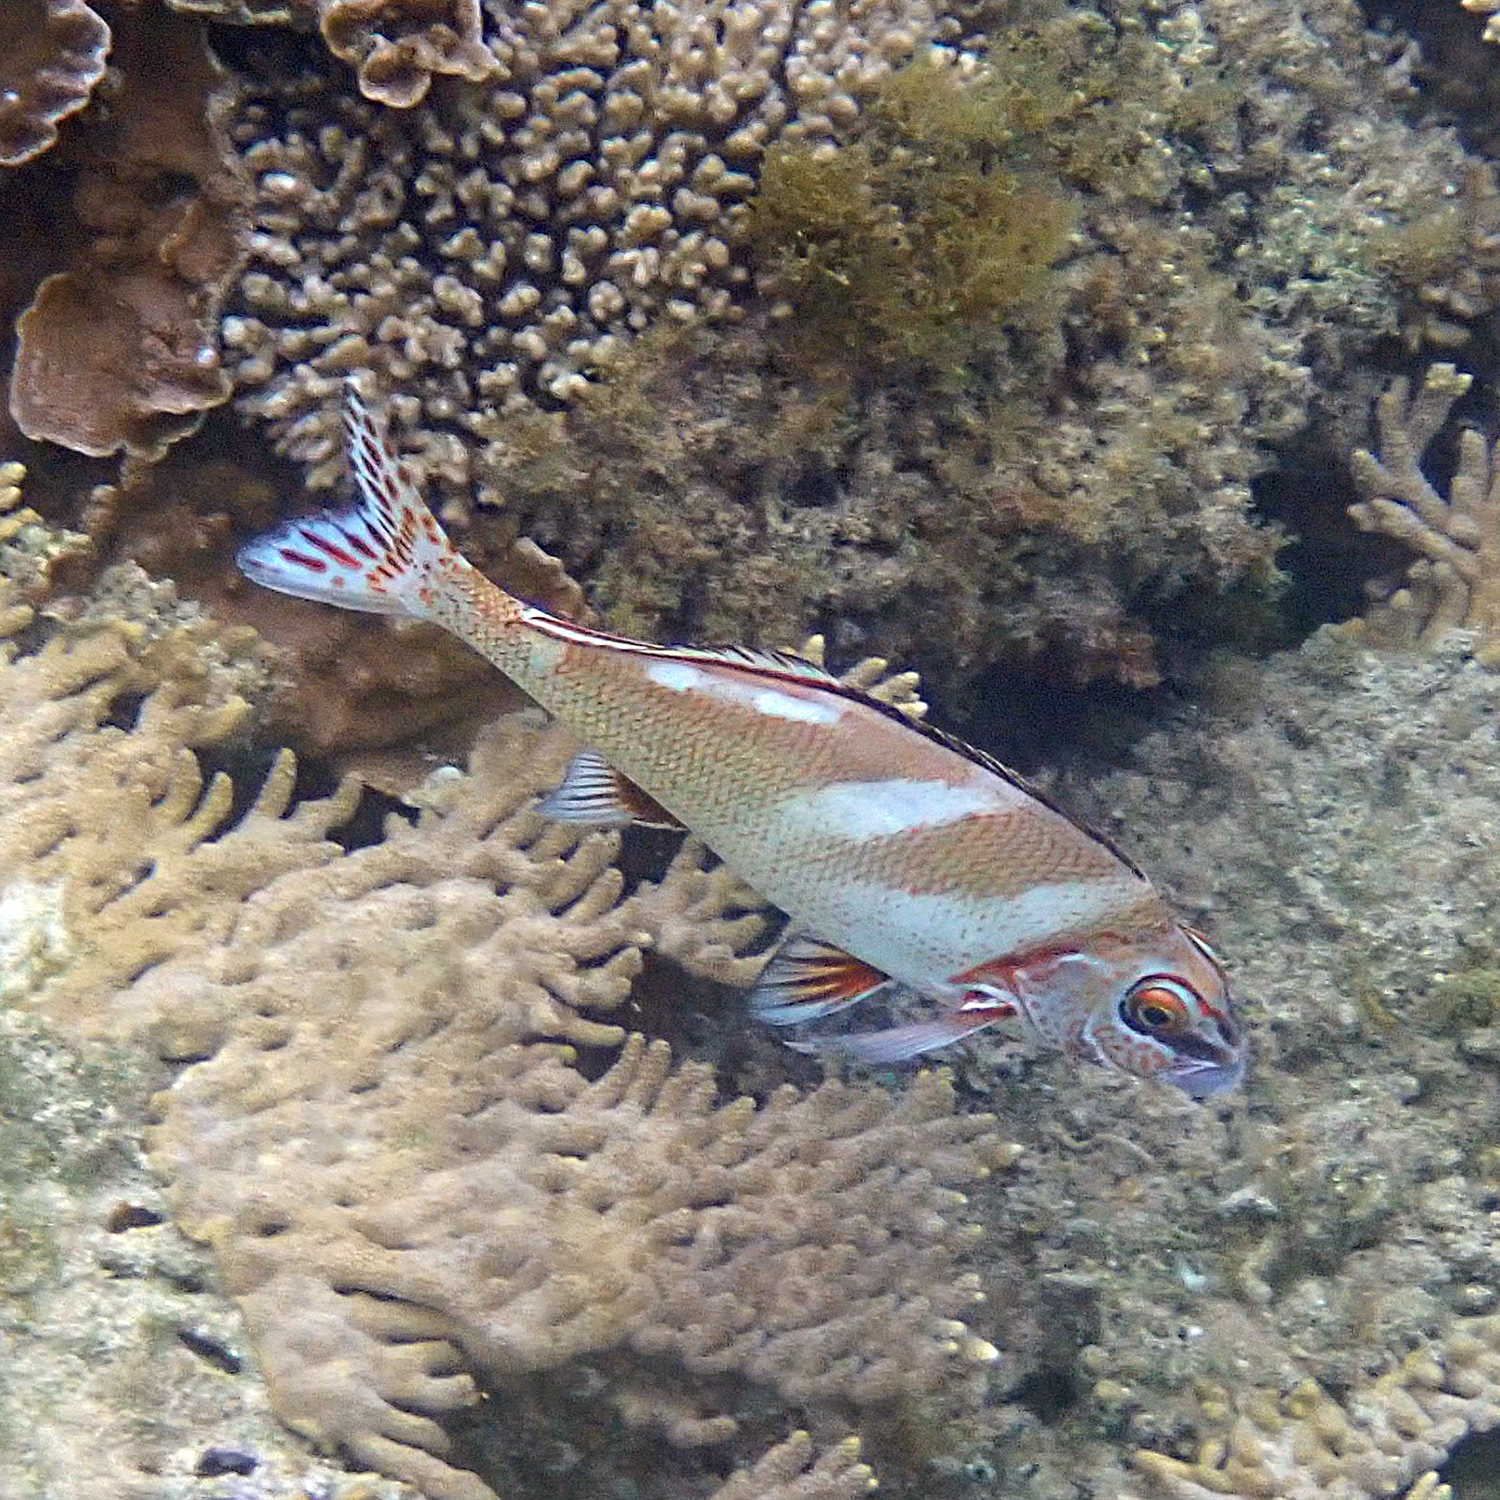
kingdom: Animalia
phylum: Chordata
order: Perciformes
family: Latridae
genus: Morwong
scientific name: Morwong ephippium
